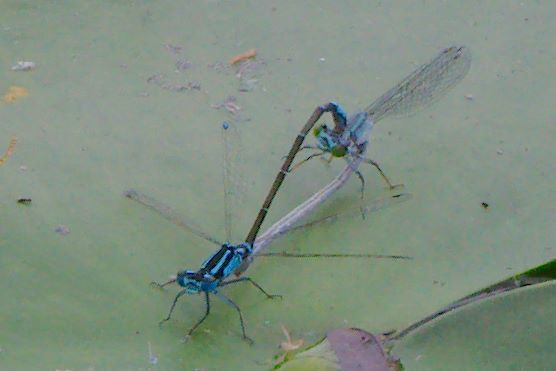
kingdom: Animalia
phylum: Arthropoda
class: Insecta
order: Odonata
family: Coenagrionidae
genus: Ischnura
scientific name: Ischnura kellicotti
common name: Lilypad forktail
